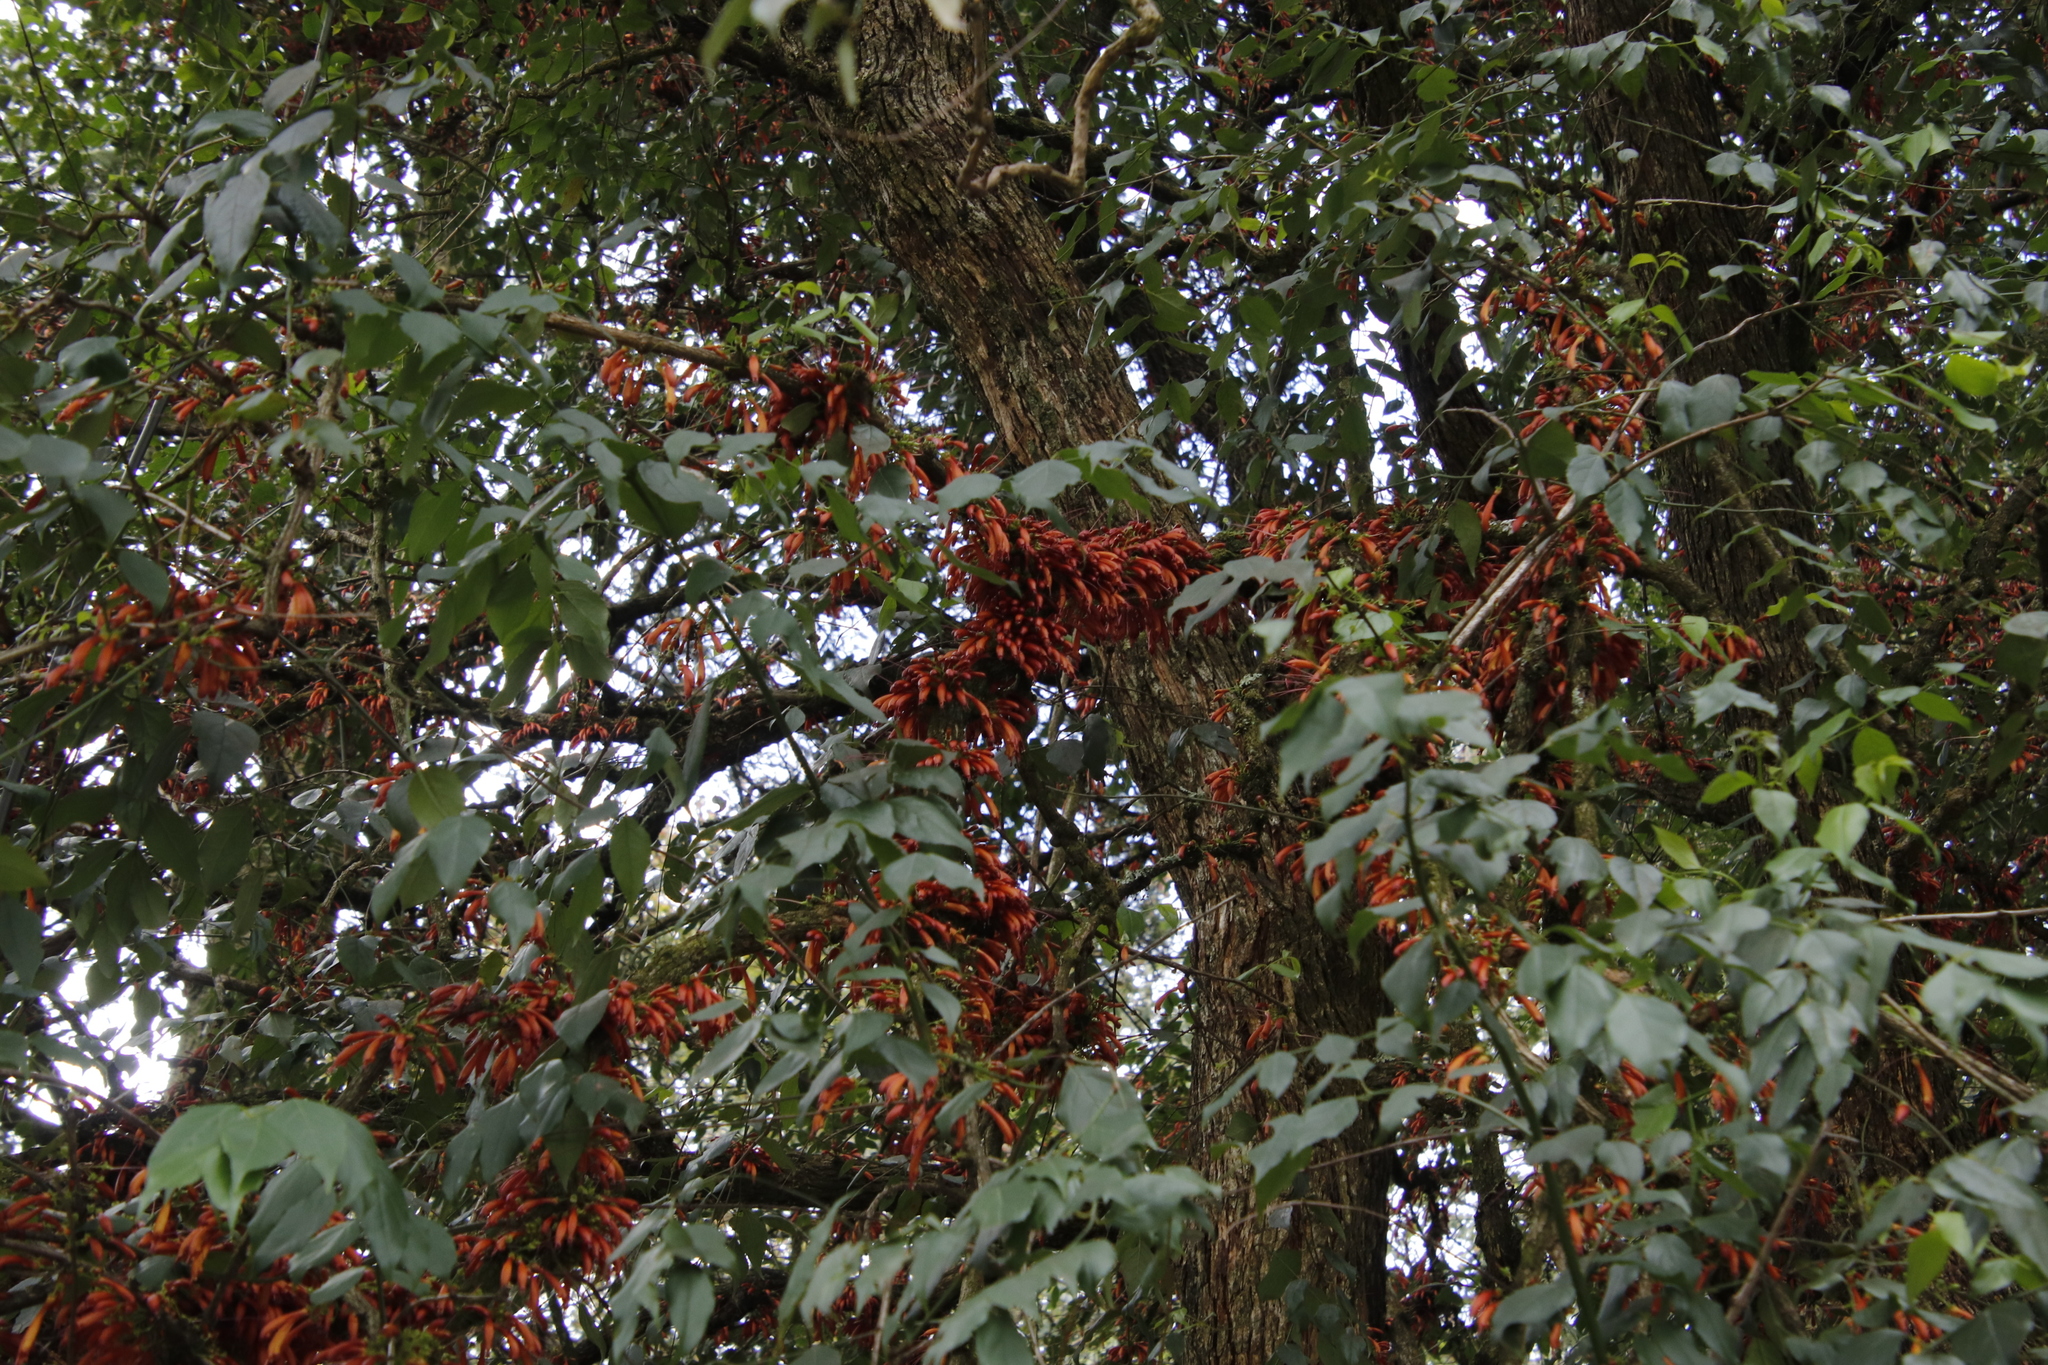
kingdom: Plantae
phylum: Tracheophyta
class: Magnoliopsida
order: Lamiales
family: Stilbaceae
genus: Halleria
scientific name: Halleria lucida
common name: Tree fuschia
